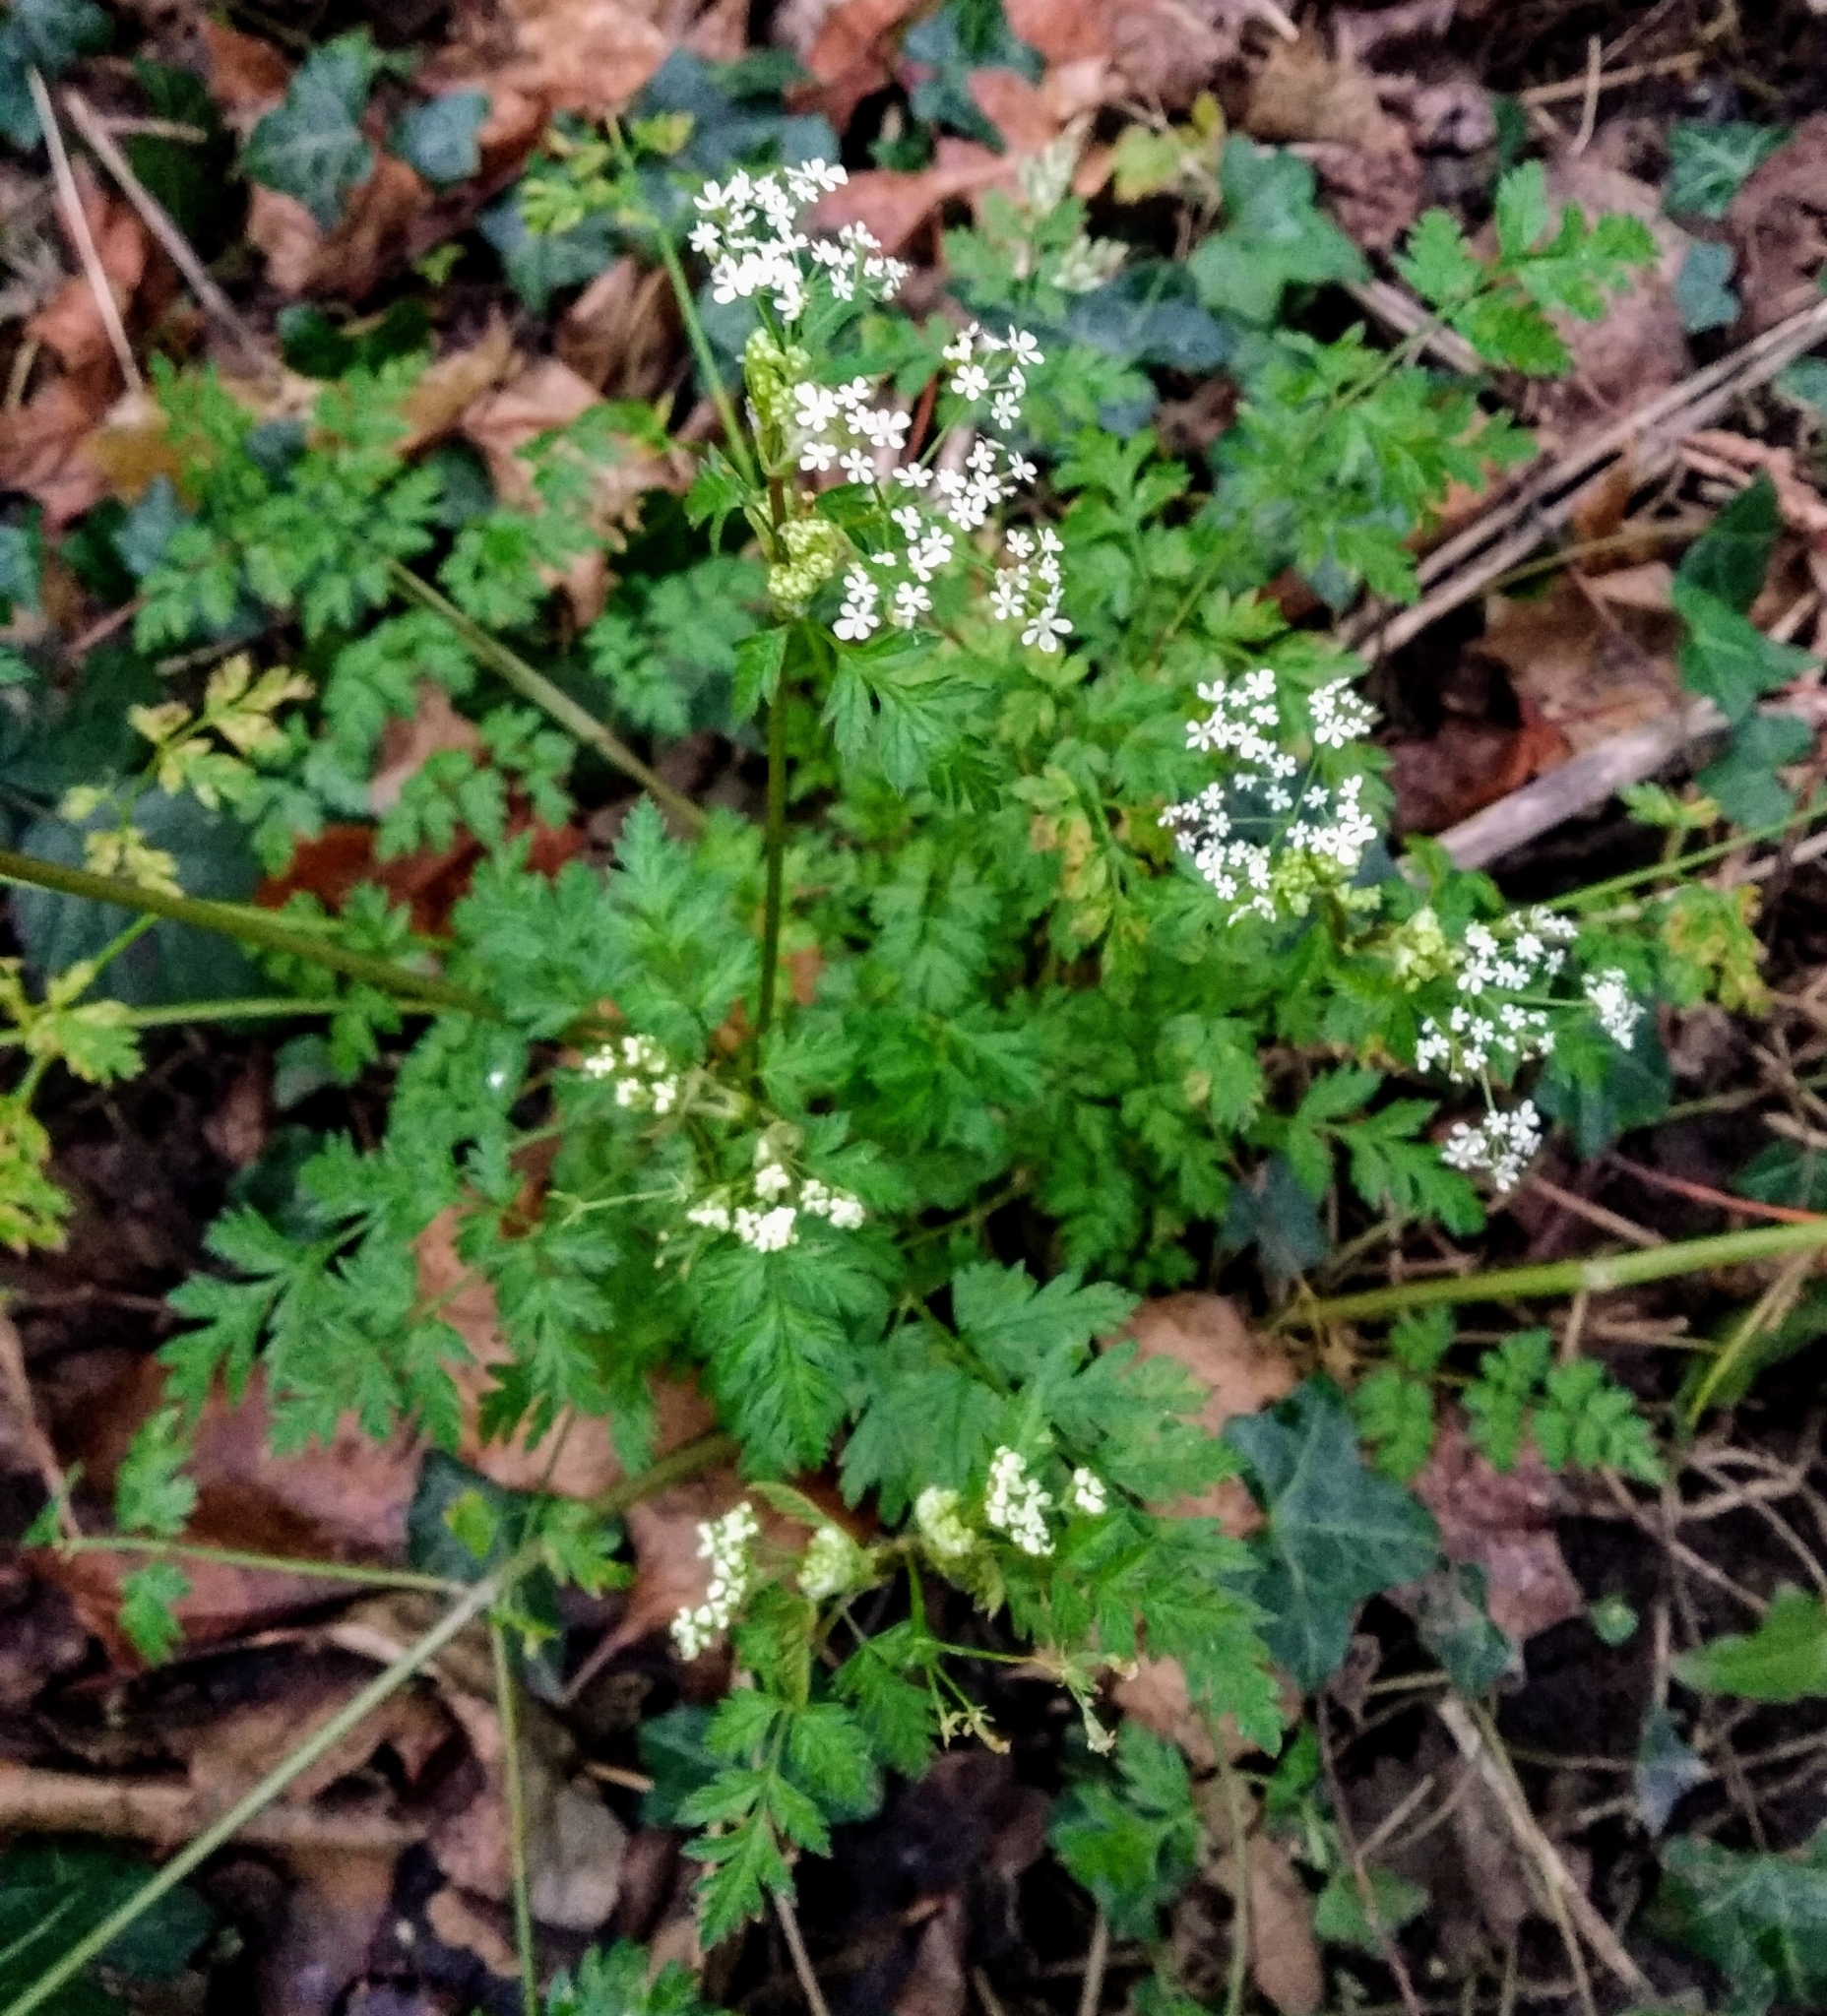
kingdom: Plantae
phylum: Tracheophyta
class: Magnoliopsida
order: Apiales
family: Apiaceae
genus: Anthriscus
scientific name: Anthriscus sylvestris
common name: Cow parsley
